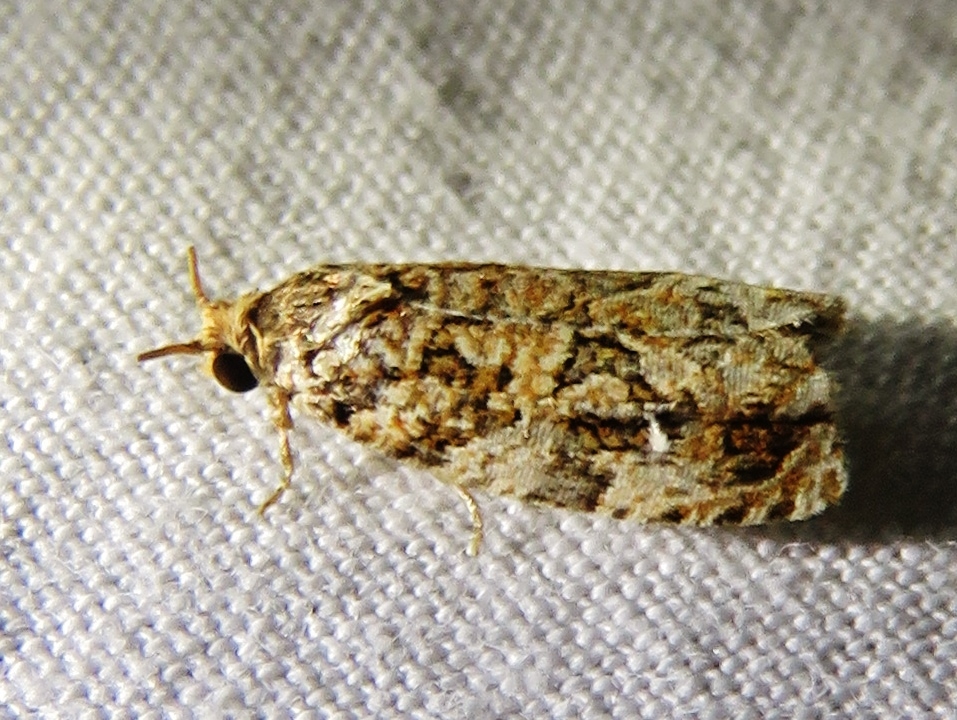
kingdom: Animalia
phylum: Arthropoda
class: Insecta
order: Lepidoptera
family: Tortricidae
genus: Phaecasiophora
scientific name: Phaecasiophora niveiguttana
